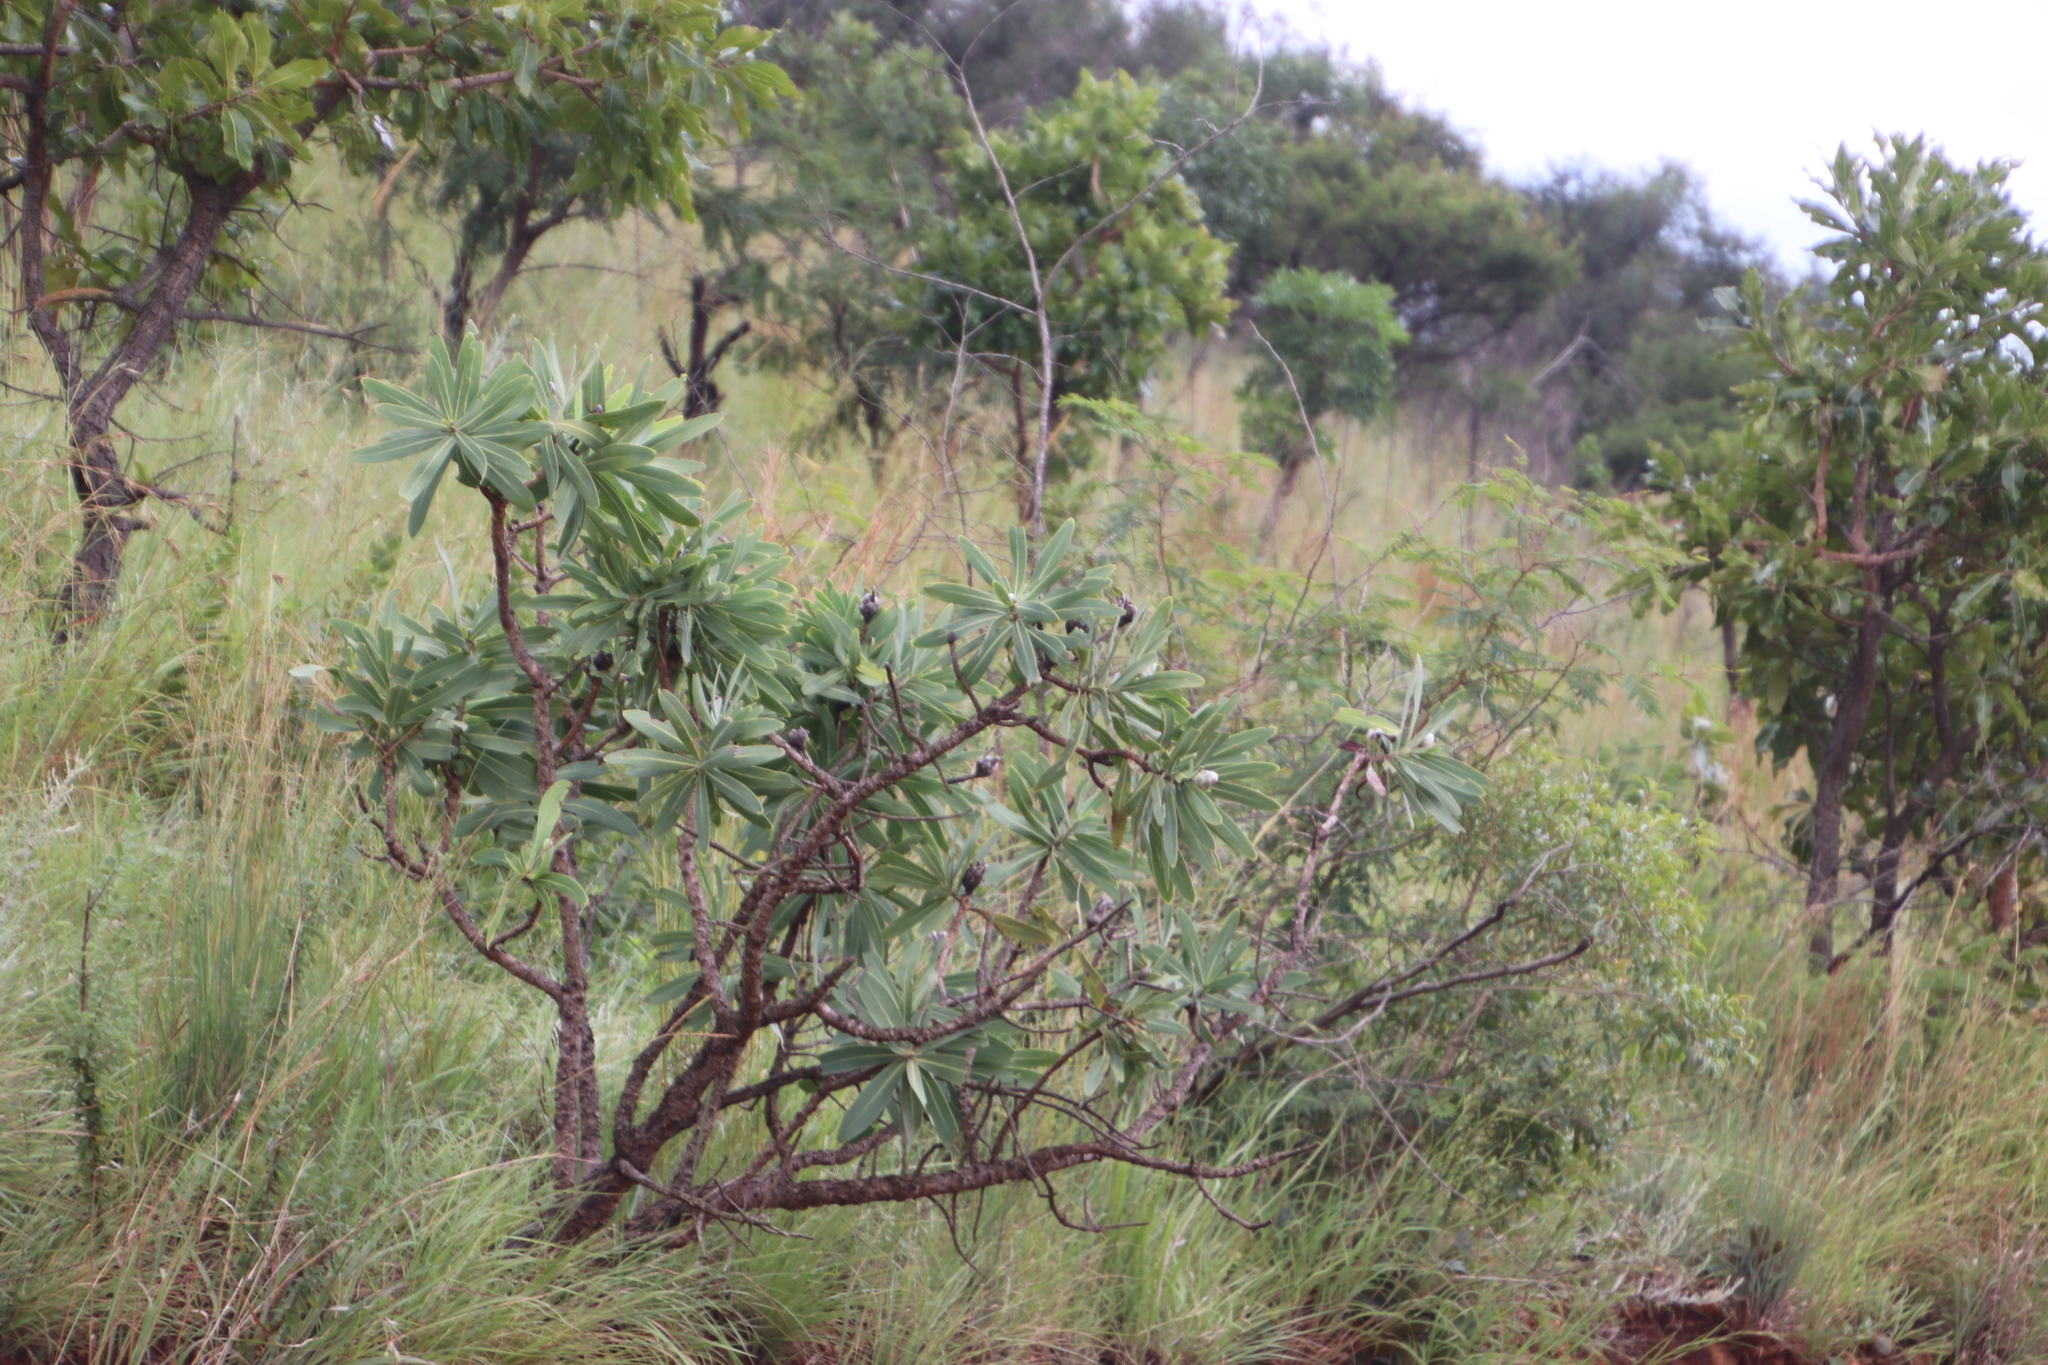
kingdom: Plantae
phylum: Tracheophyta
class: Magnoliopsida
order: Proteales
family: Proteaceae
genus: Protea
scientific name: Protea caffra
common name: Common sugarbush
